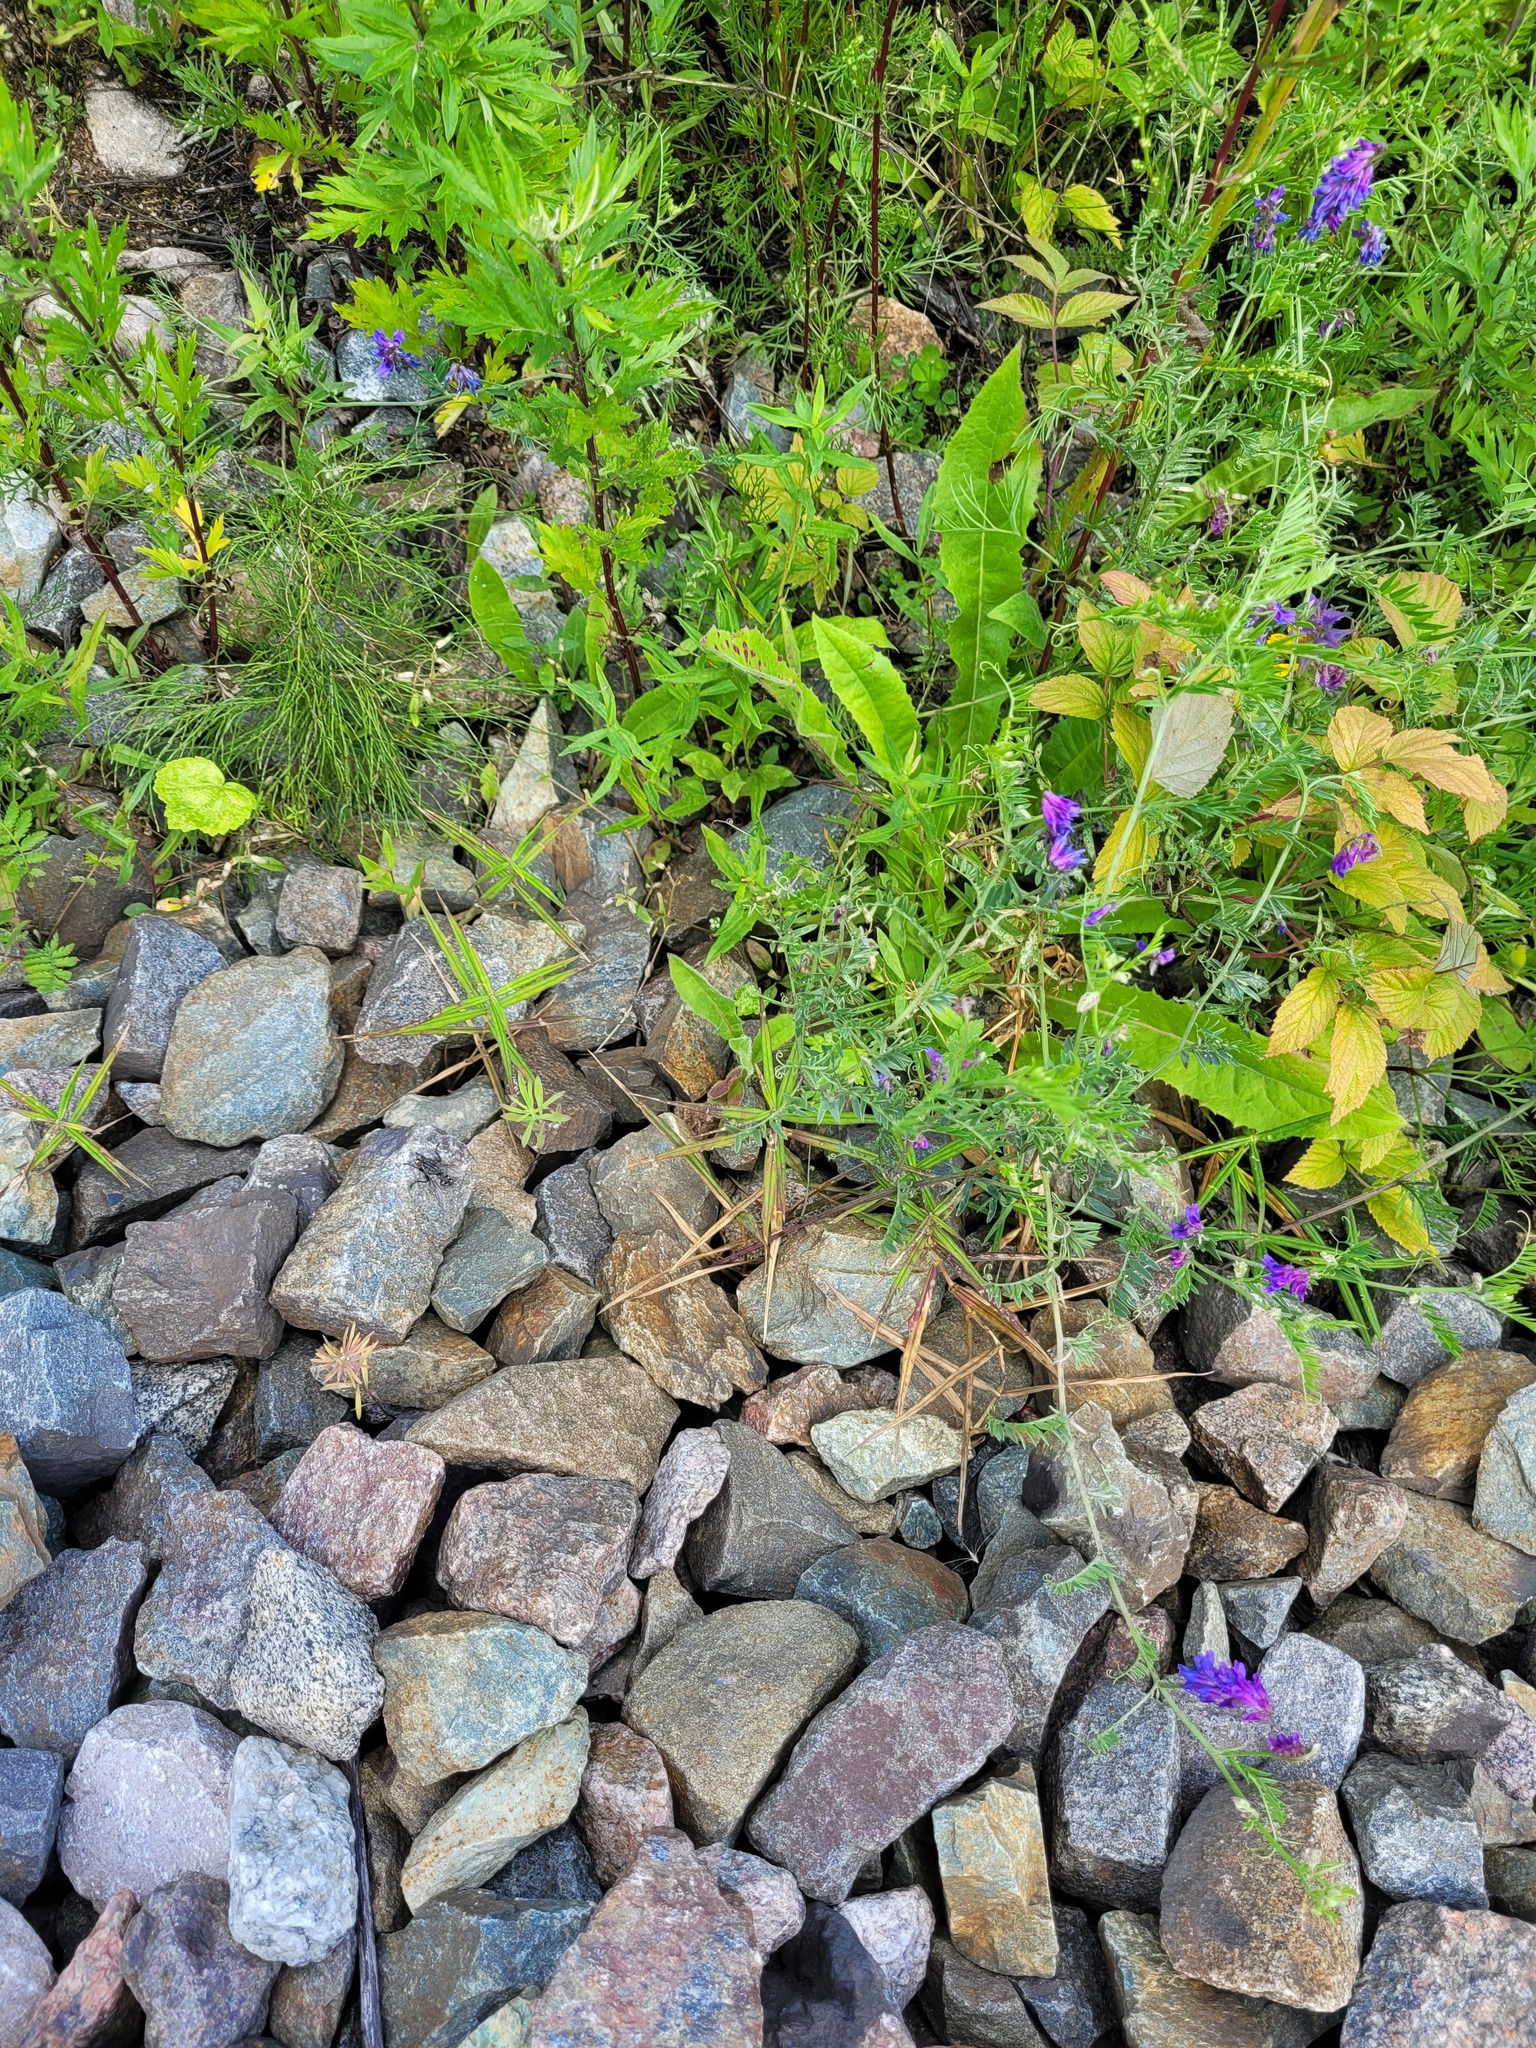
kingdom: Plantae
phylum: Tracheophyta
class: Magnoliopsida
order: Caryophyllales
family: Caryophyllaceae
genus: Rabelera
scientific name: Rabelera holostea
